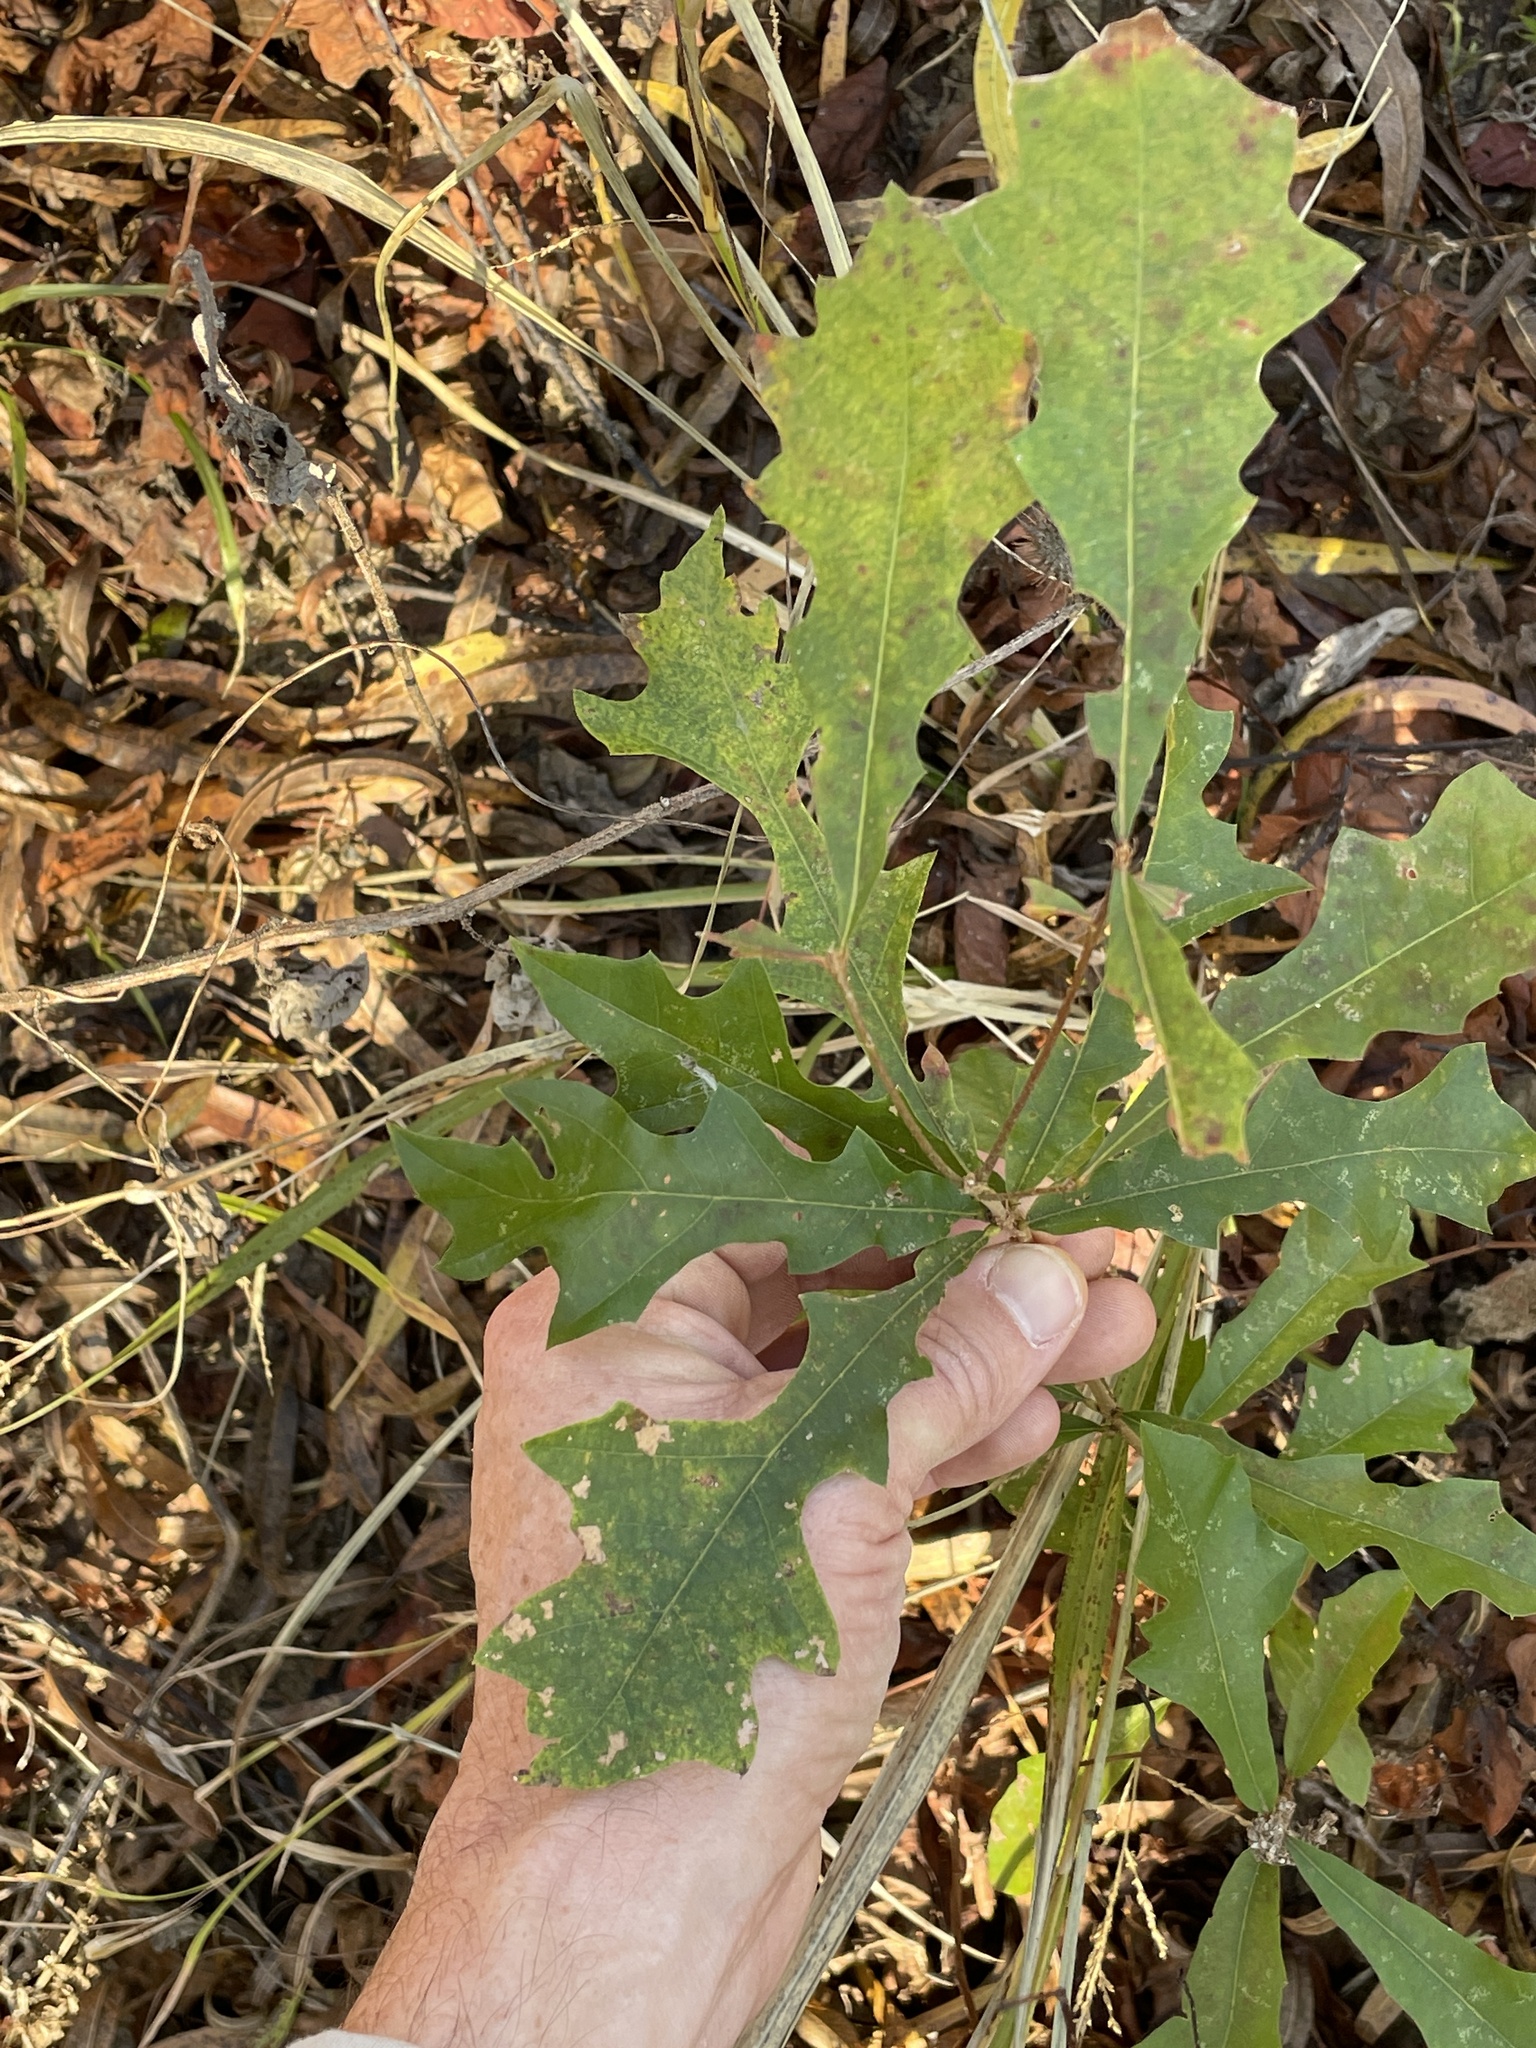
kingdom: Plantae
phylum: Tracheophyta
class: Magnoliopsida
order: Fagales
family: Fagaceae
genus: Quercus
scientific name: Quercus lyrata
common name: Overcup oak
